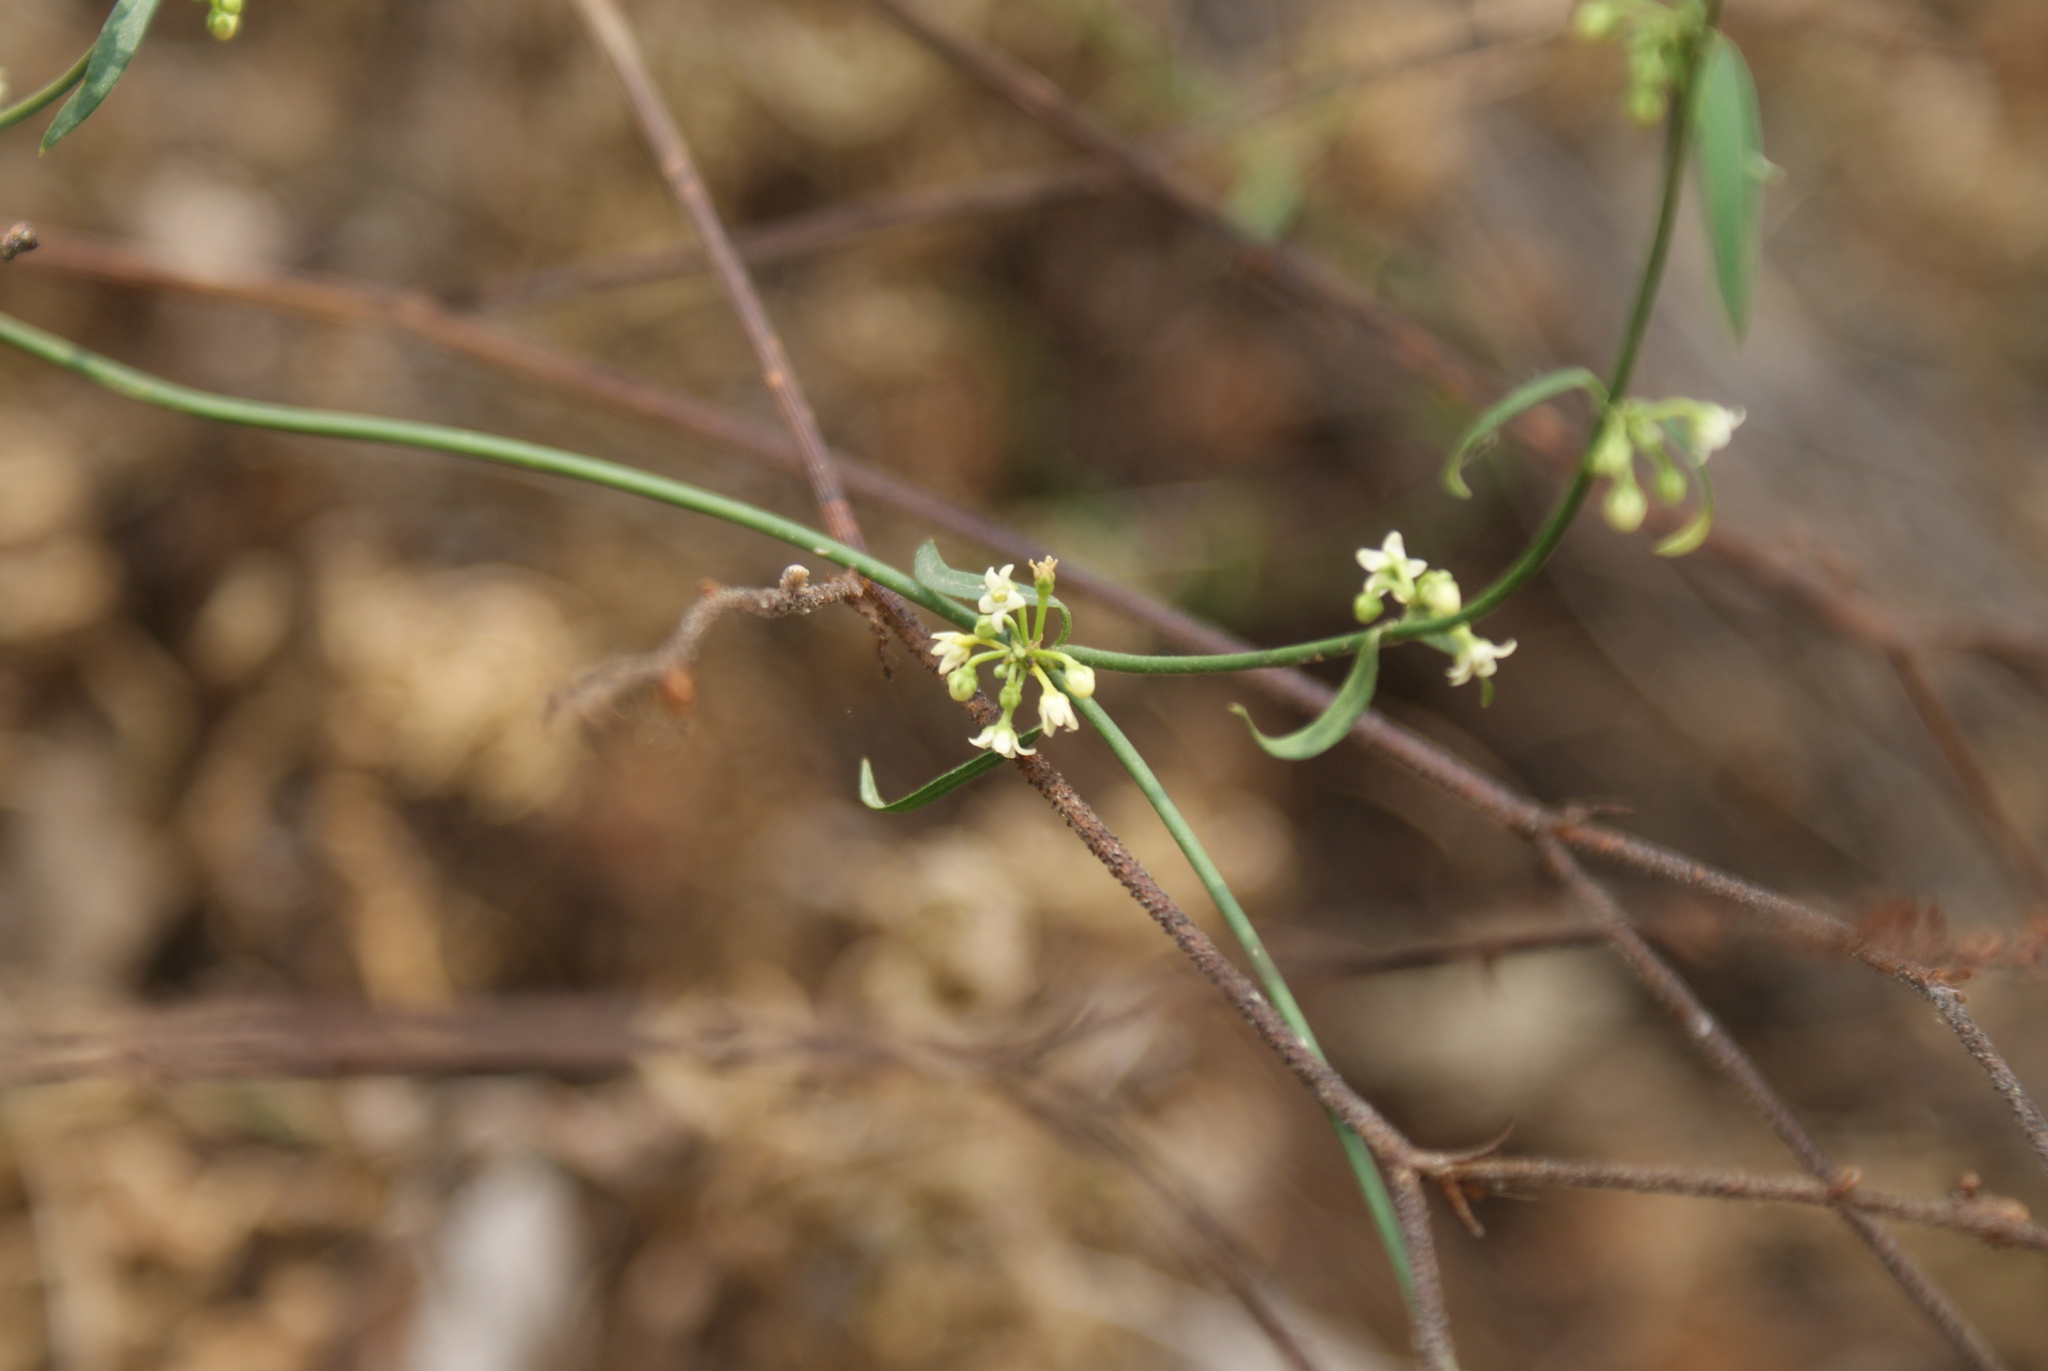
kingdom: Plantae
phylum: Tracheophyta
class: Magnoliopsida
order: Gentianales
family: Apocynaceae
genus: Orthosia
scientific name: Orthosia angustifolia
